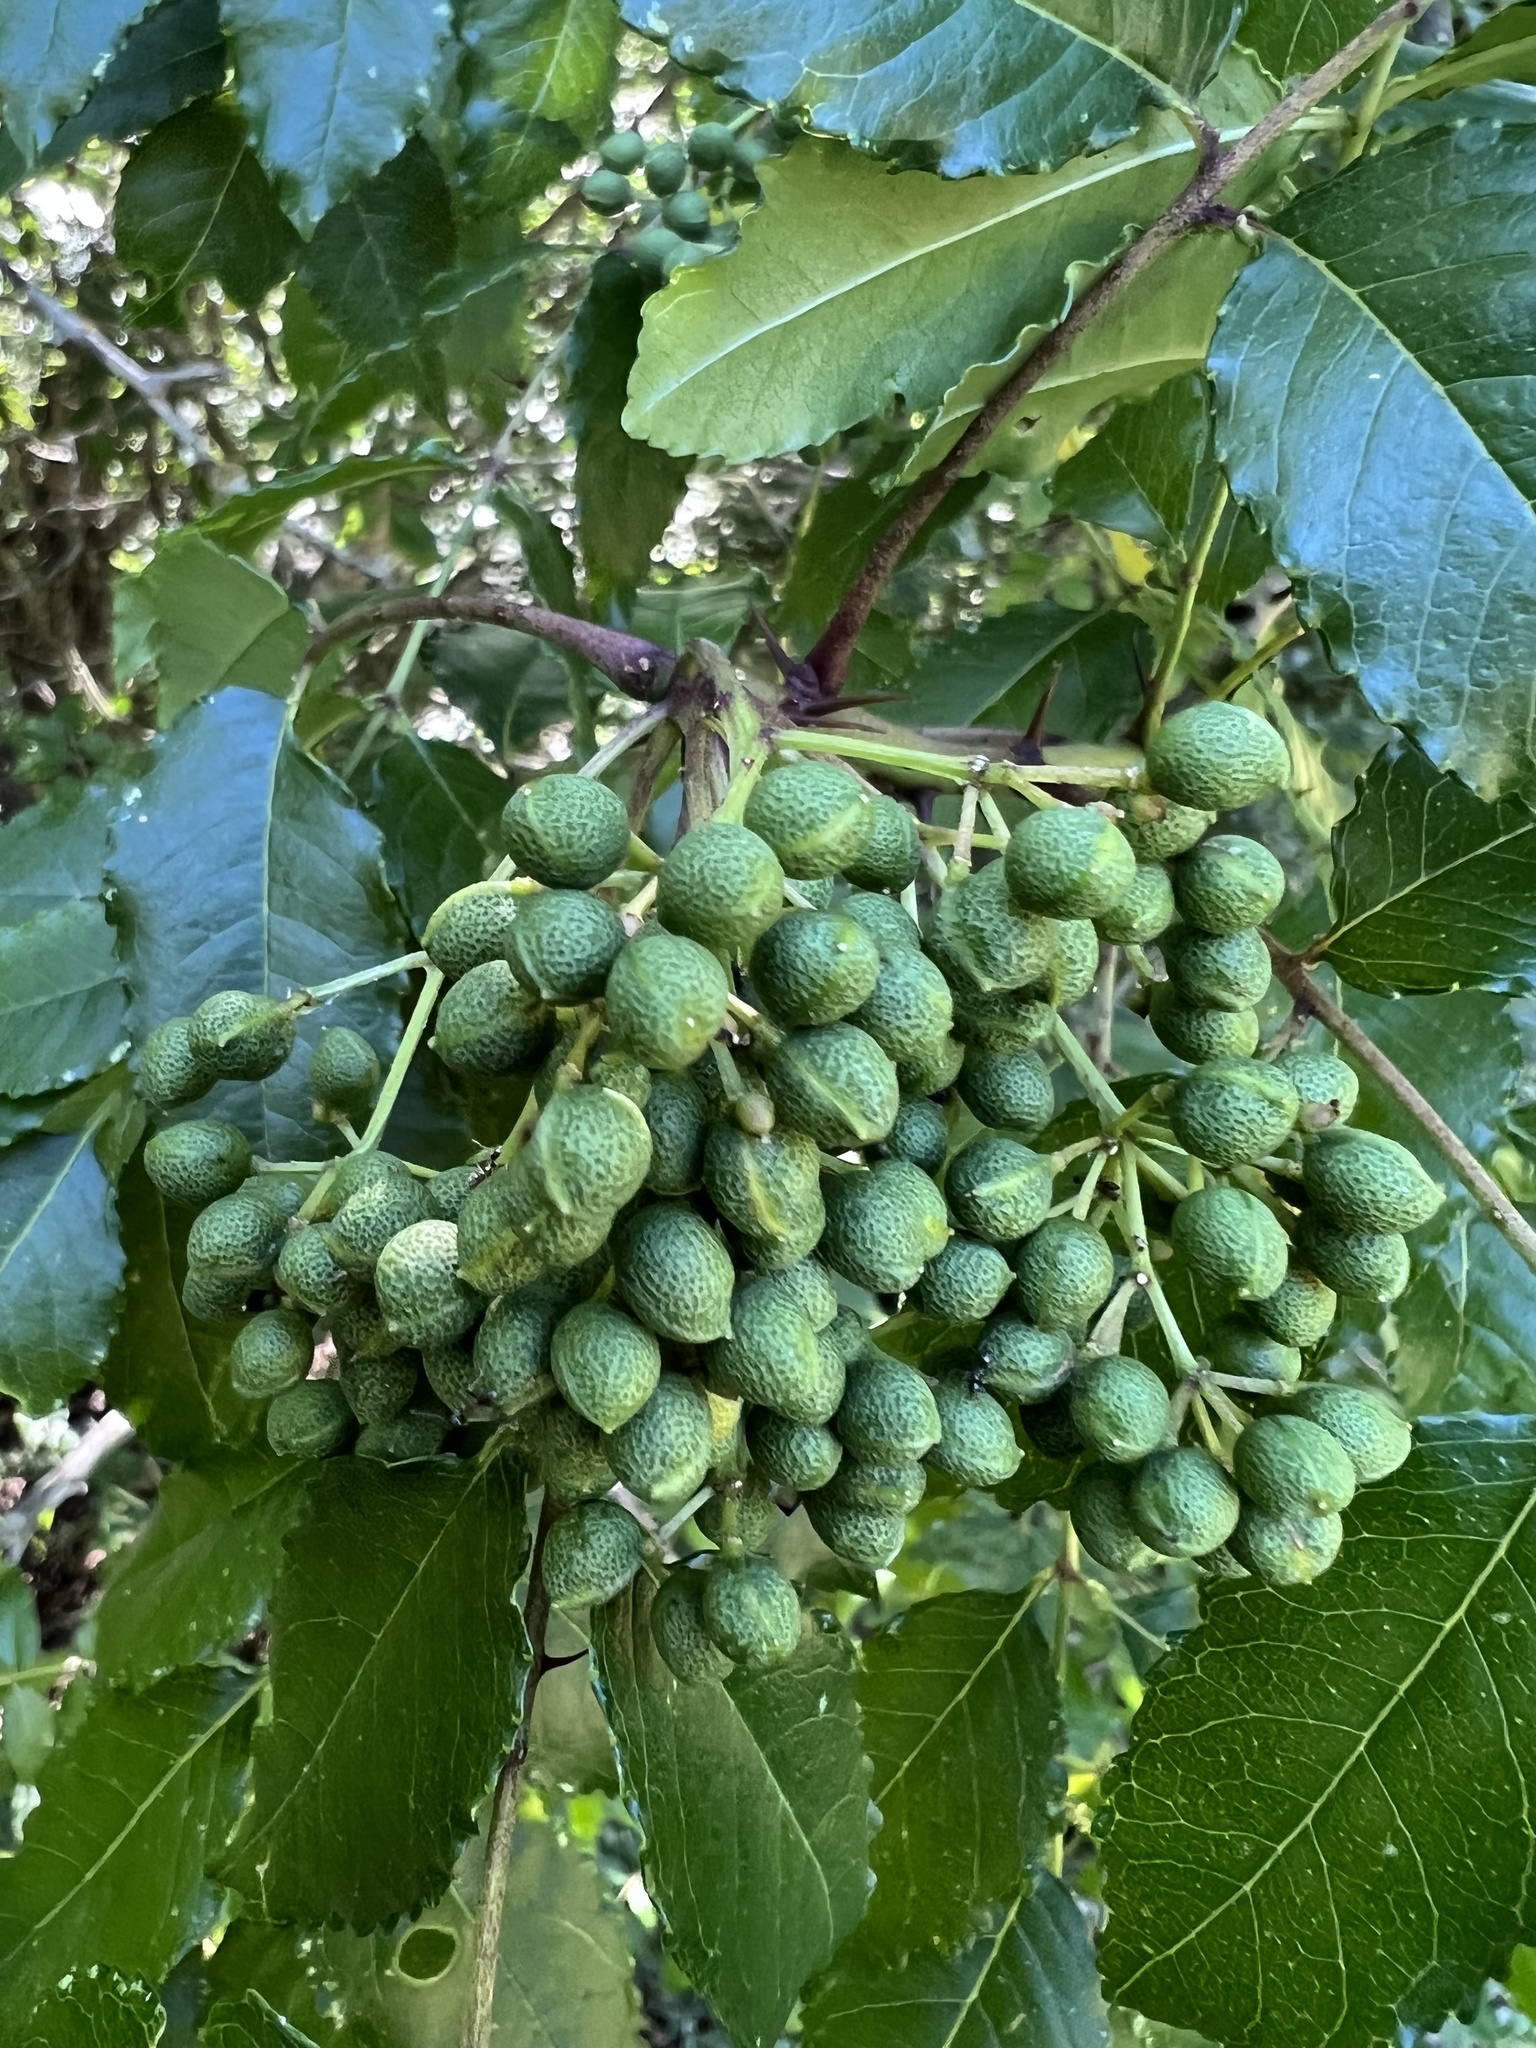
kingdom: Plantae
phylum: Tracheophyta
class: Magnoliopsida
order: Sapindales
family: Rutaceae
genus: Zanthoxylum
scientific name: Zanthoxylum clava-herculis
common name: Hercules'-club
